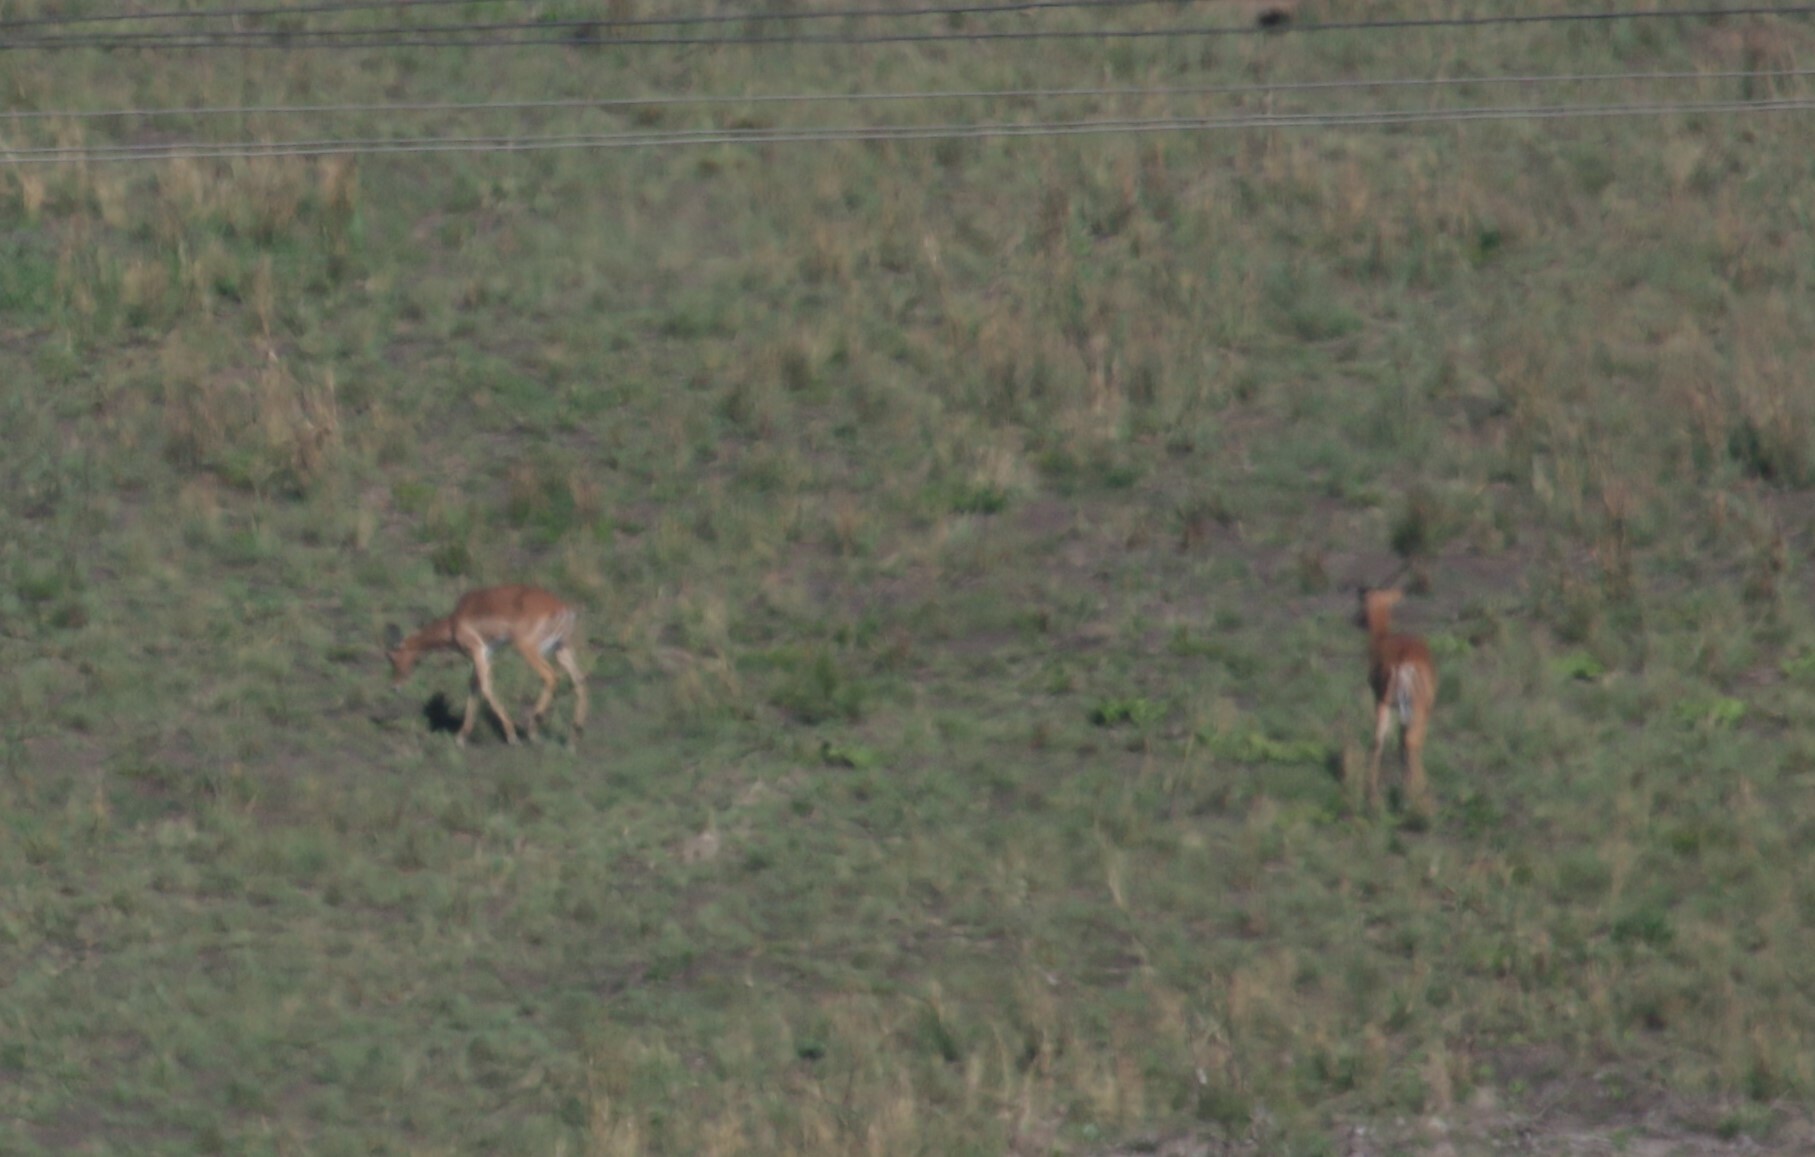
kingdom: Animalia
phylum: Chordata
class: Mammalia
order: Artiodactyla
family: Bovidae
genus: Aepyceros
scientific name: Aepyceros melampus
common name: Impala
